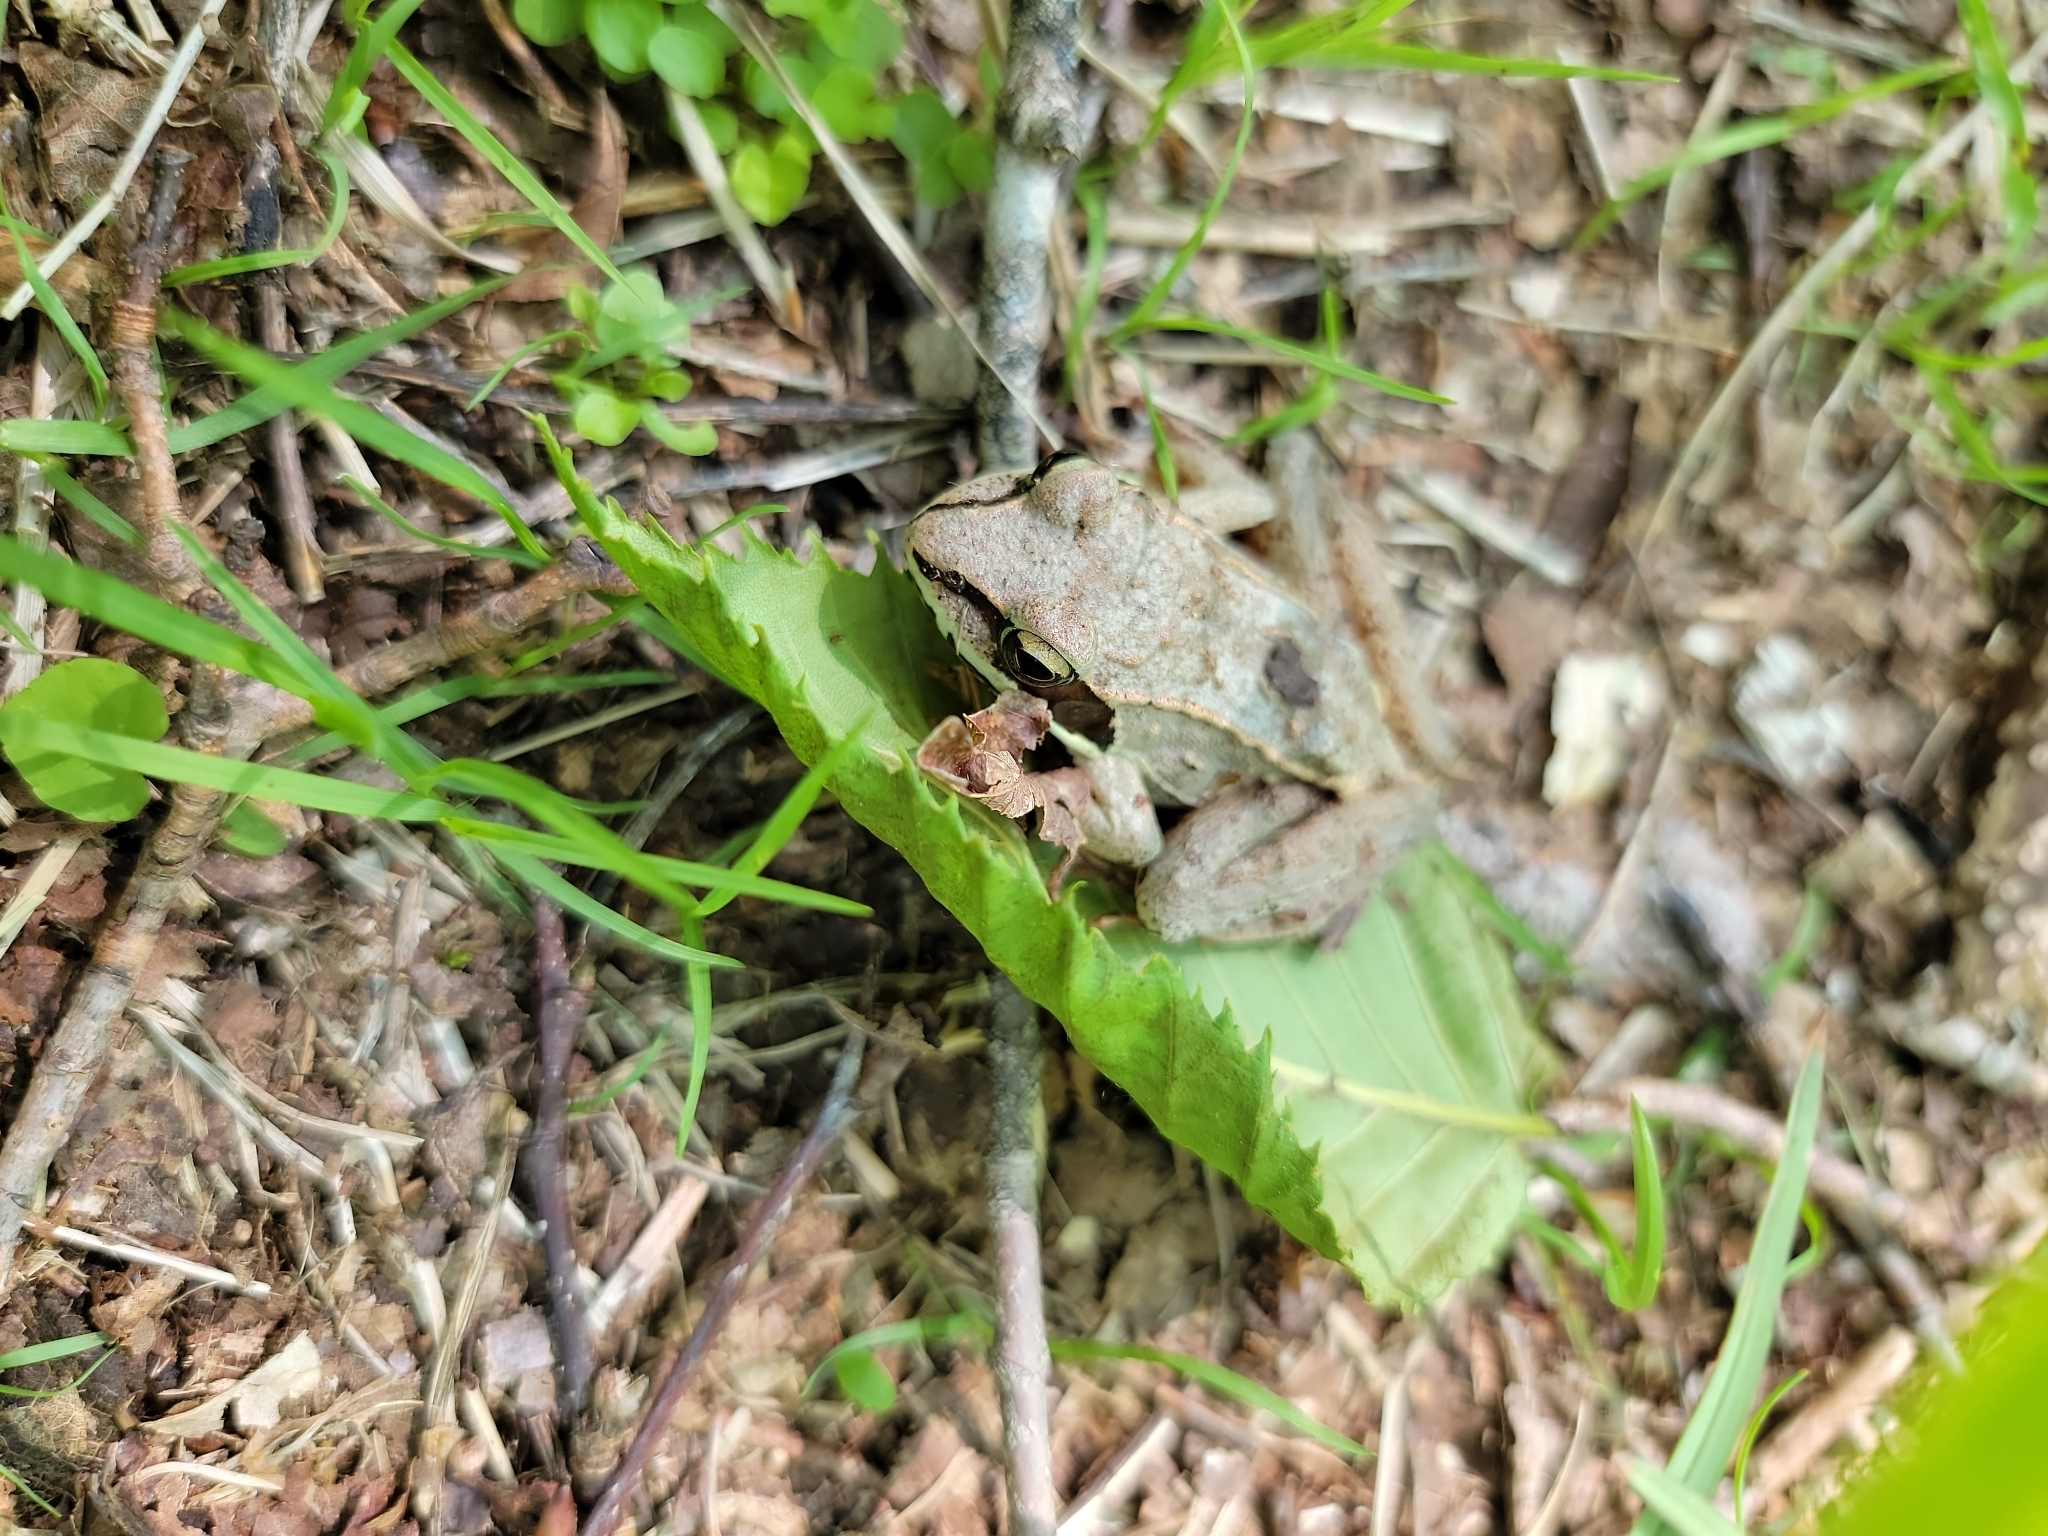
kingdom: Animalia
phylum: Chordata
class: Amphibia
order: Anura
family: Ranidae
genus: Lithobates
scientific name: Lithobates sylvaticus
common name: Wood frog
